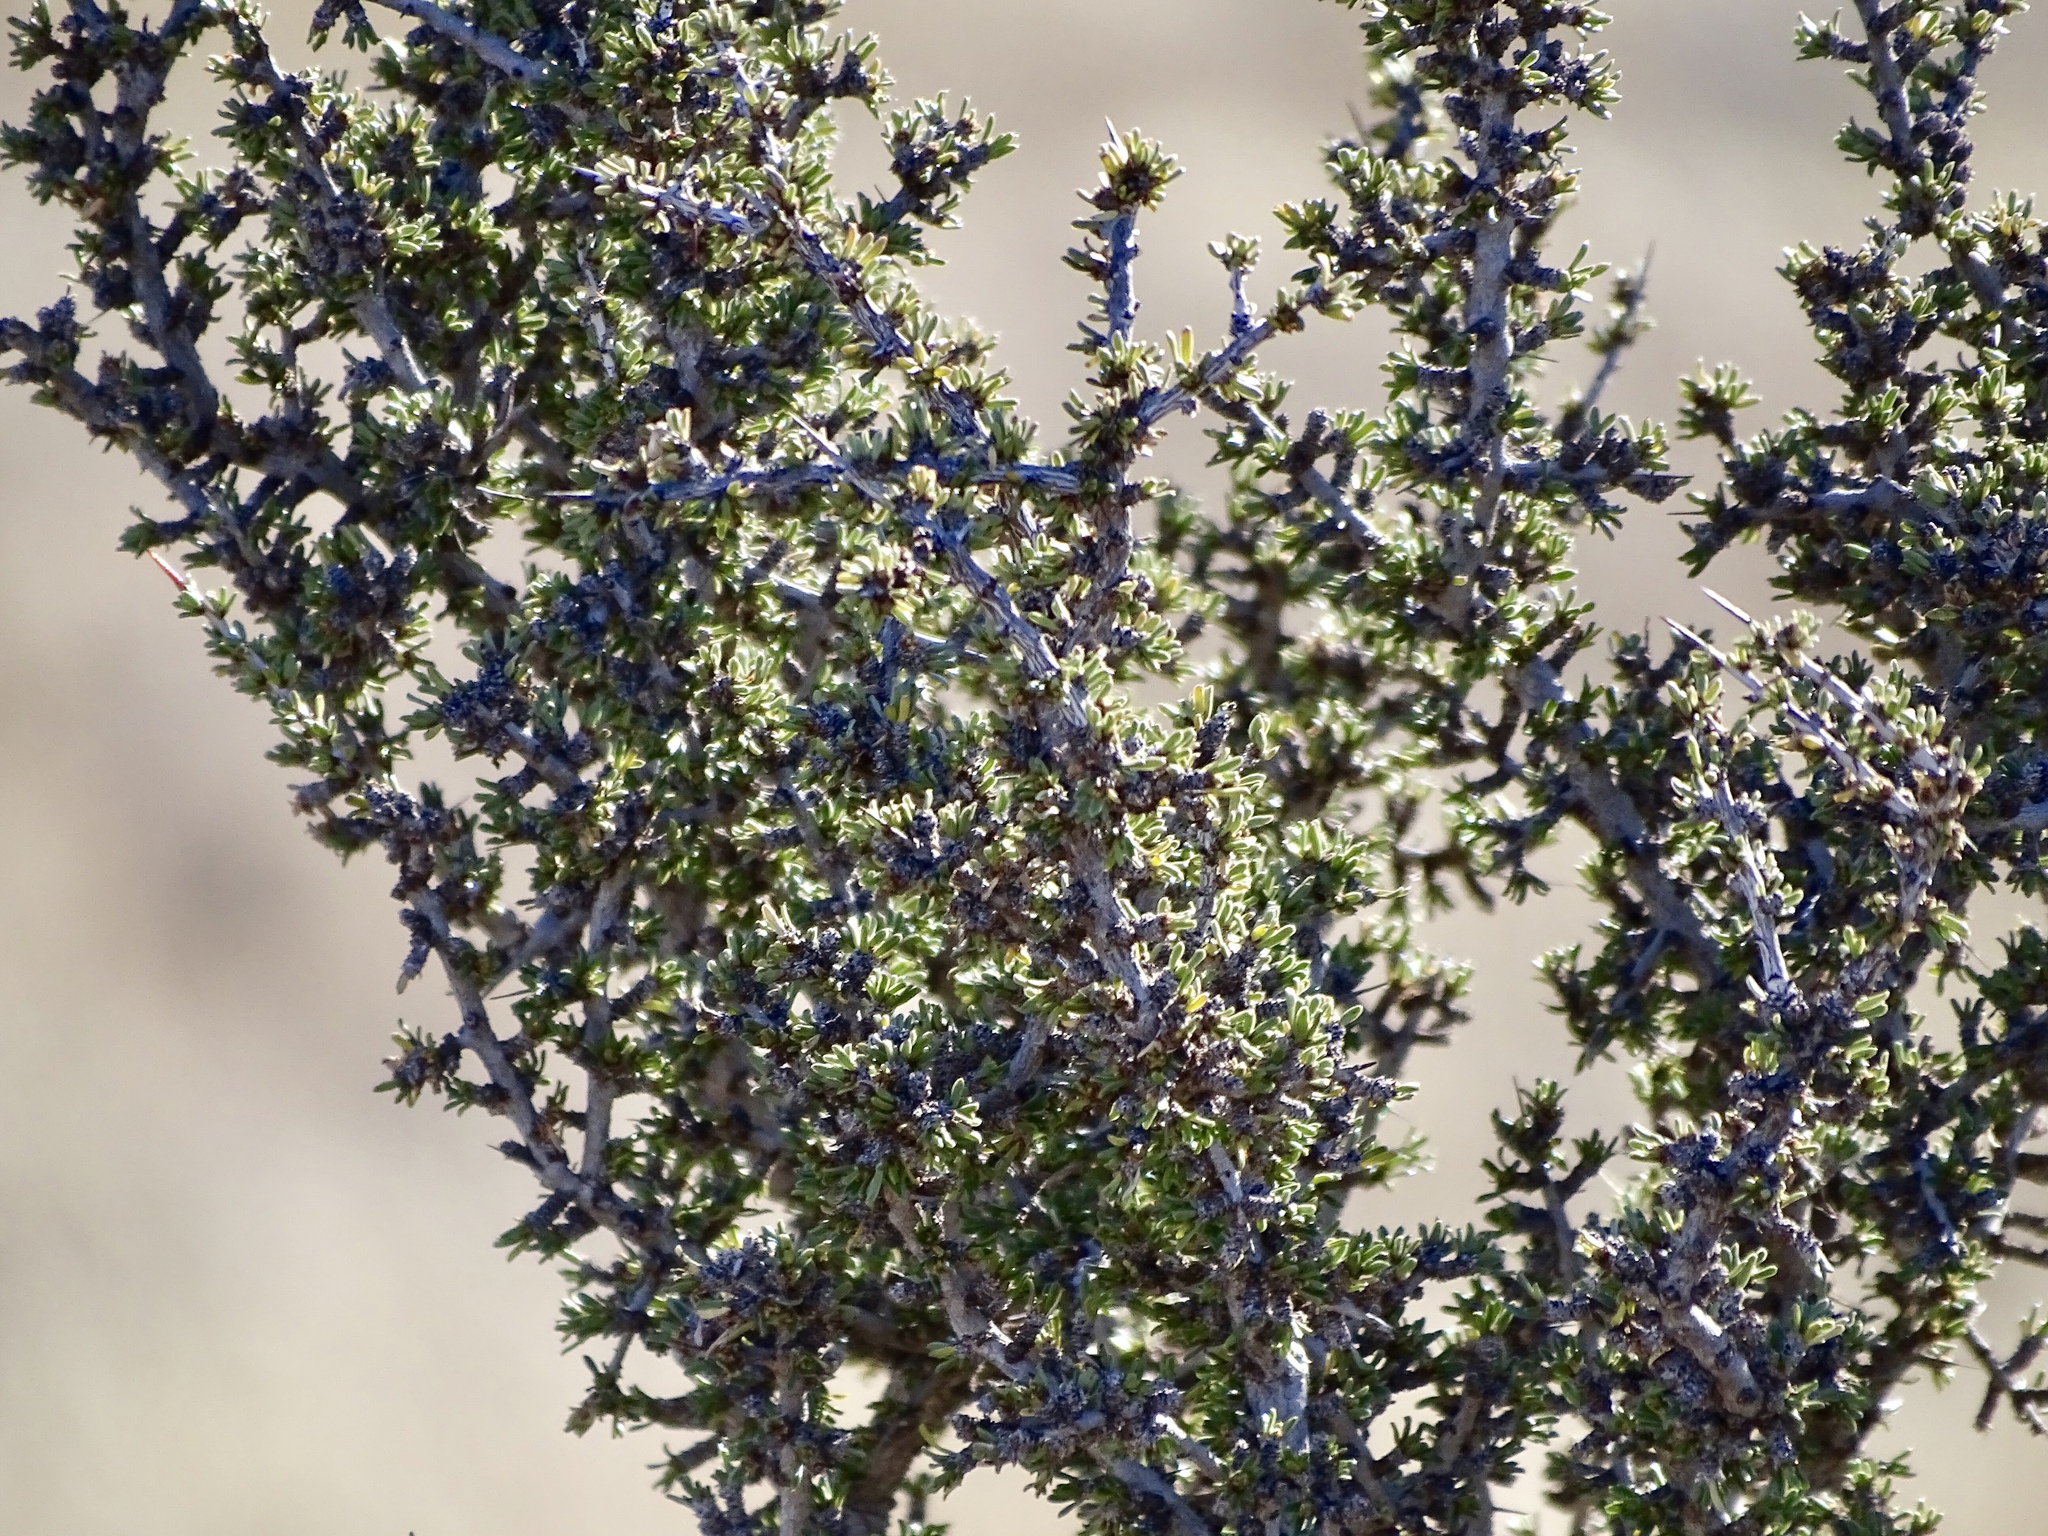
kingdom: Plantae
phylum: Tracheophyta
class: Magnoliopsida
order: Rosales
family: Rhamnaceae
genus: Condalia
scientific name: Condalia ericoides
